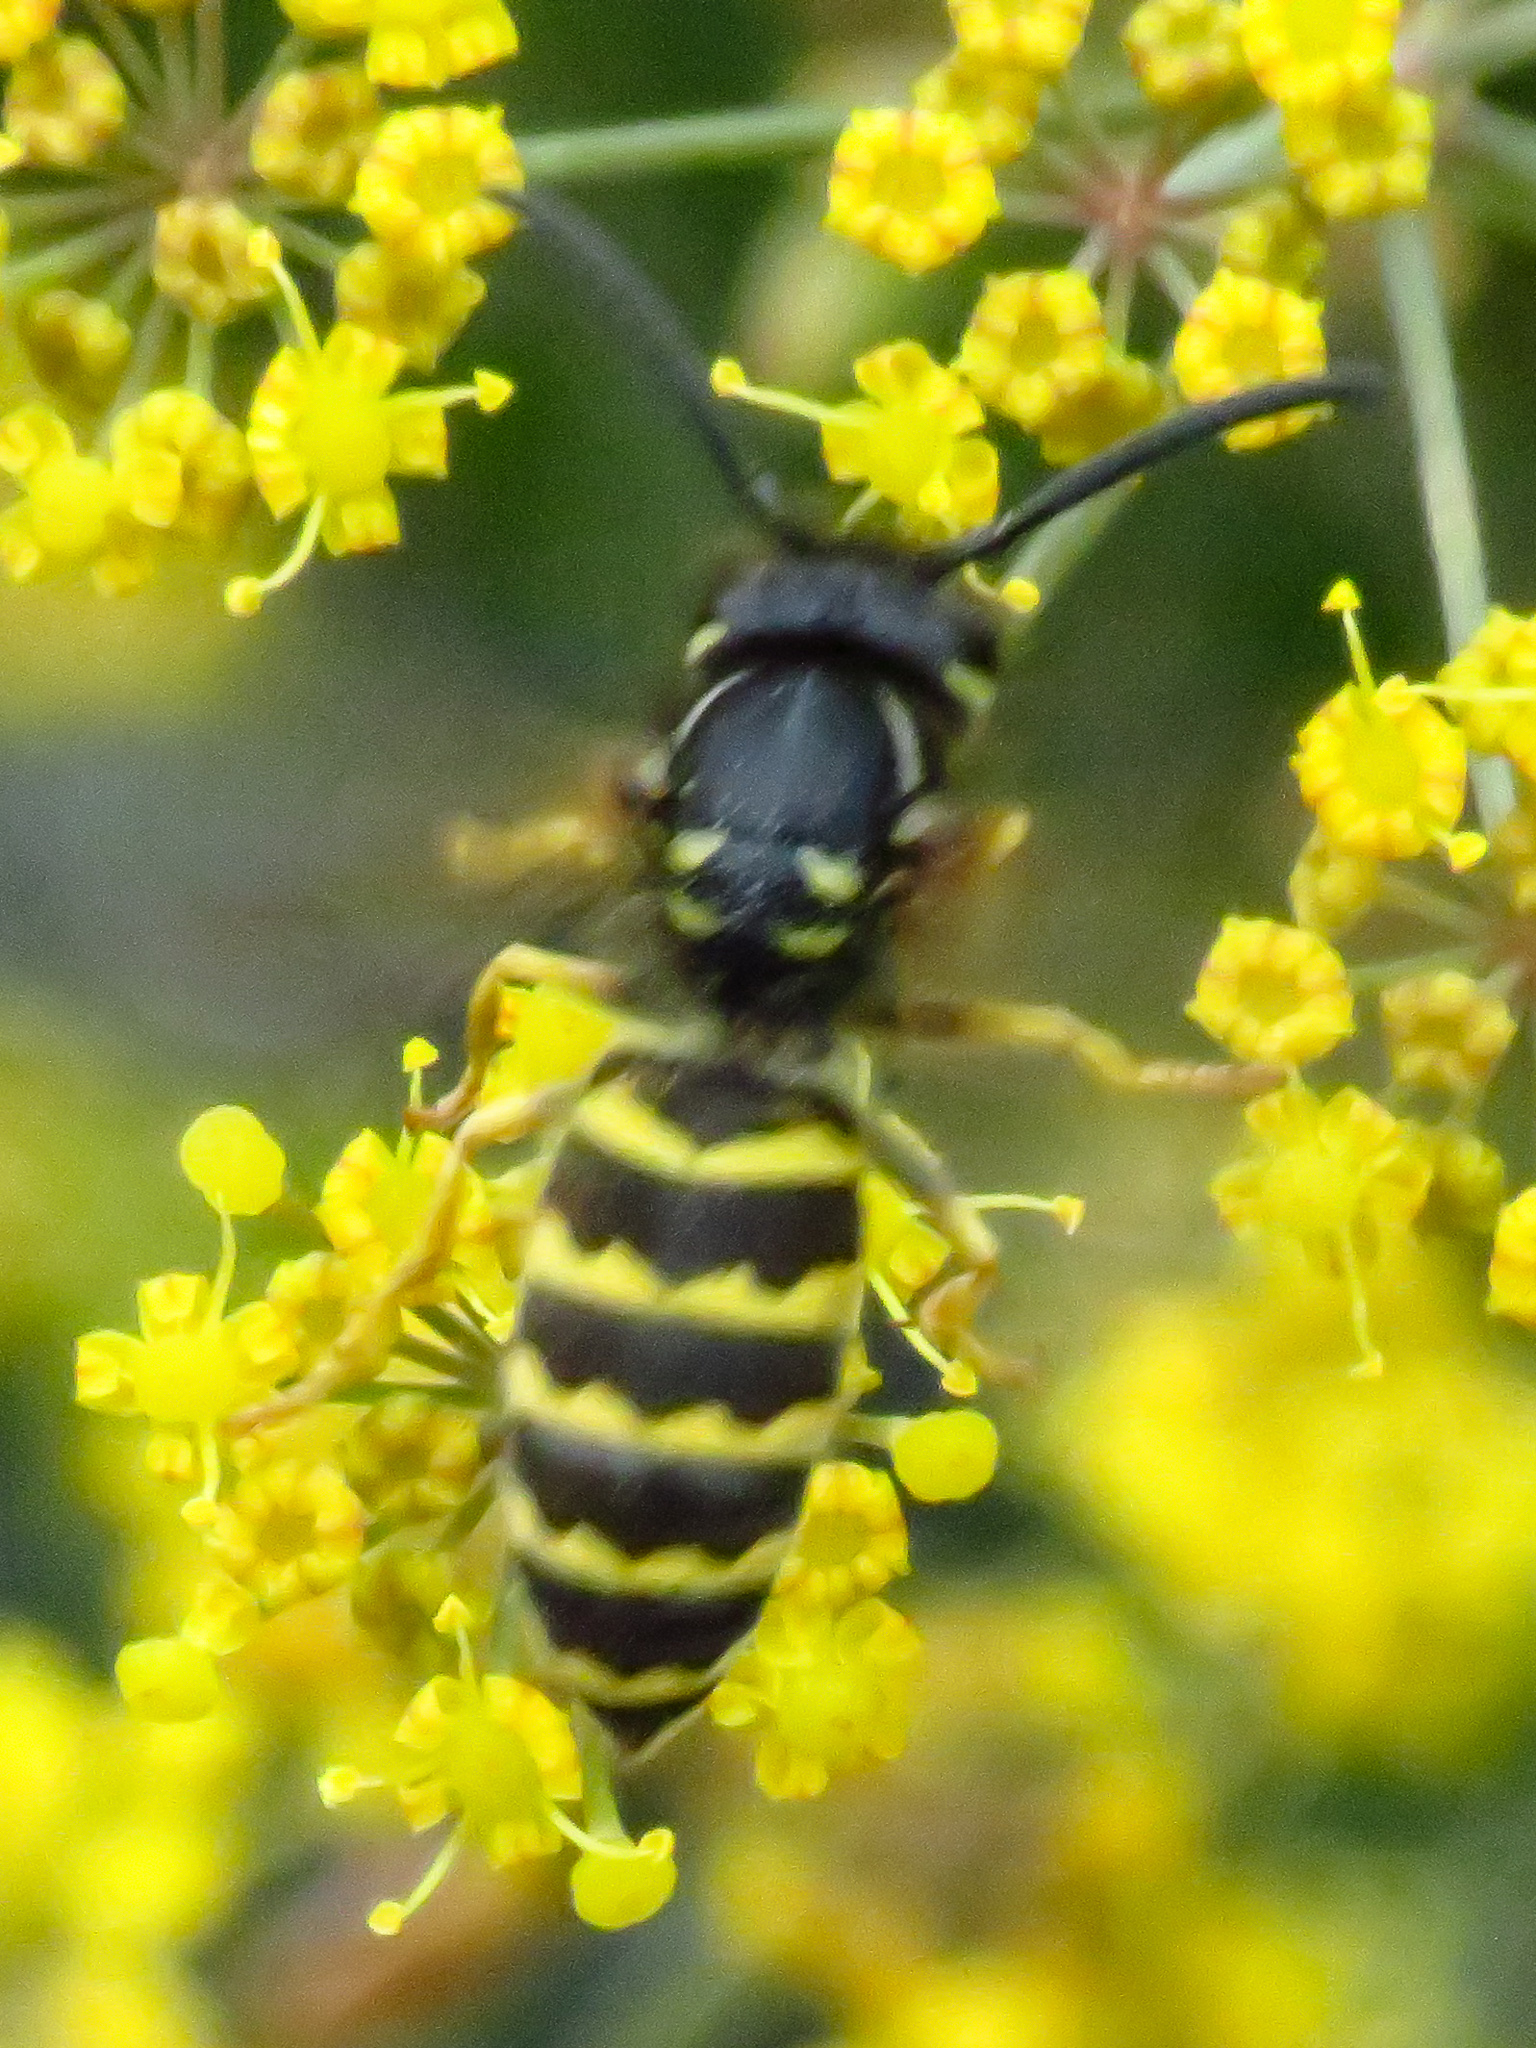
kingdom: Animalia
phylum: Arthropoda
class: Insecta
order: Hymenoptera
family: Vespidae
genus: Vespula
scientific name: Vespula alascensis
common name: Alaska yellowjacket
